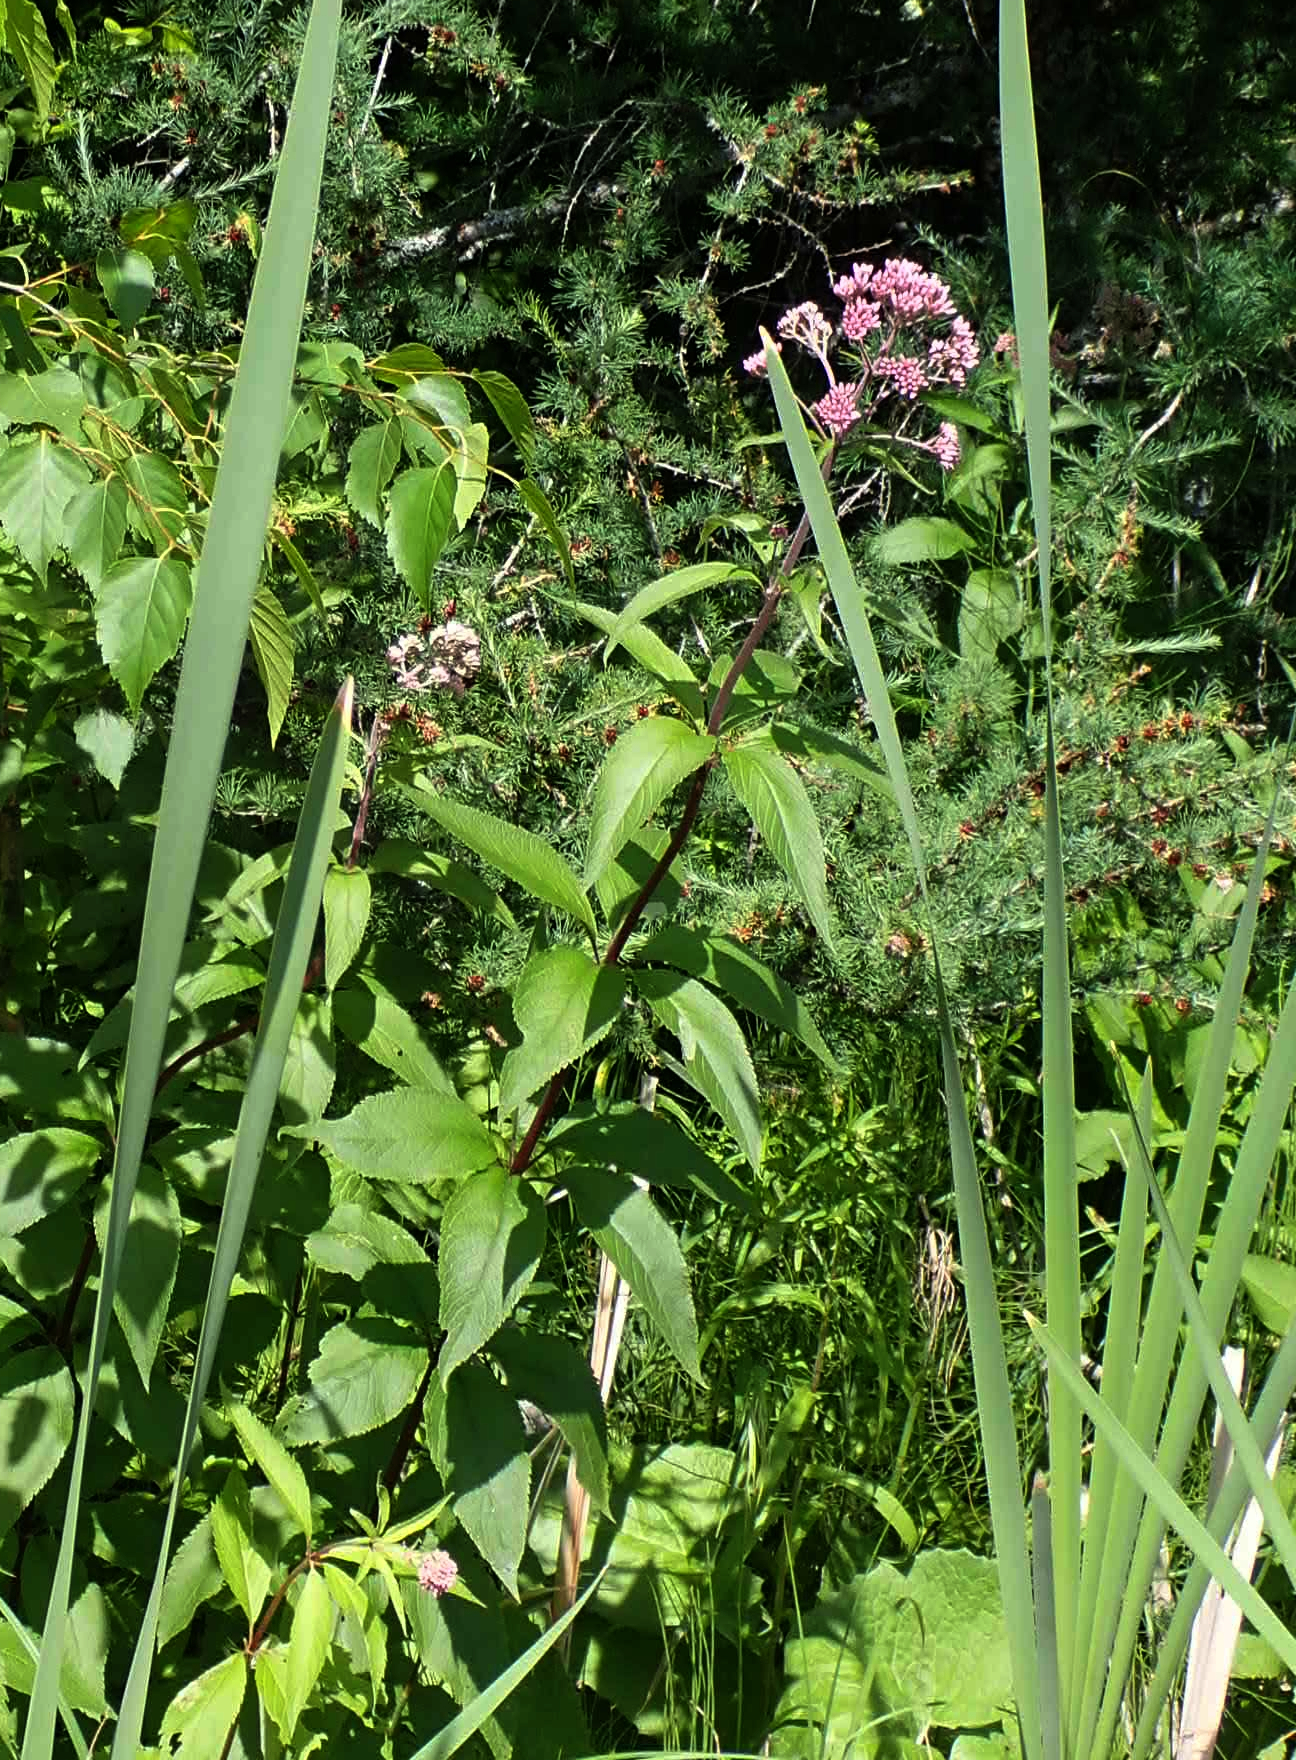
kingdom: Plantae
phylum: Tracheophyta
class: Magnoliopsida
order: Asterales
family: Asteraceae
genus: Eutrochium
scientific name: Eutrochium maculatum
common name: Spotted joe pye weed
